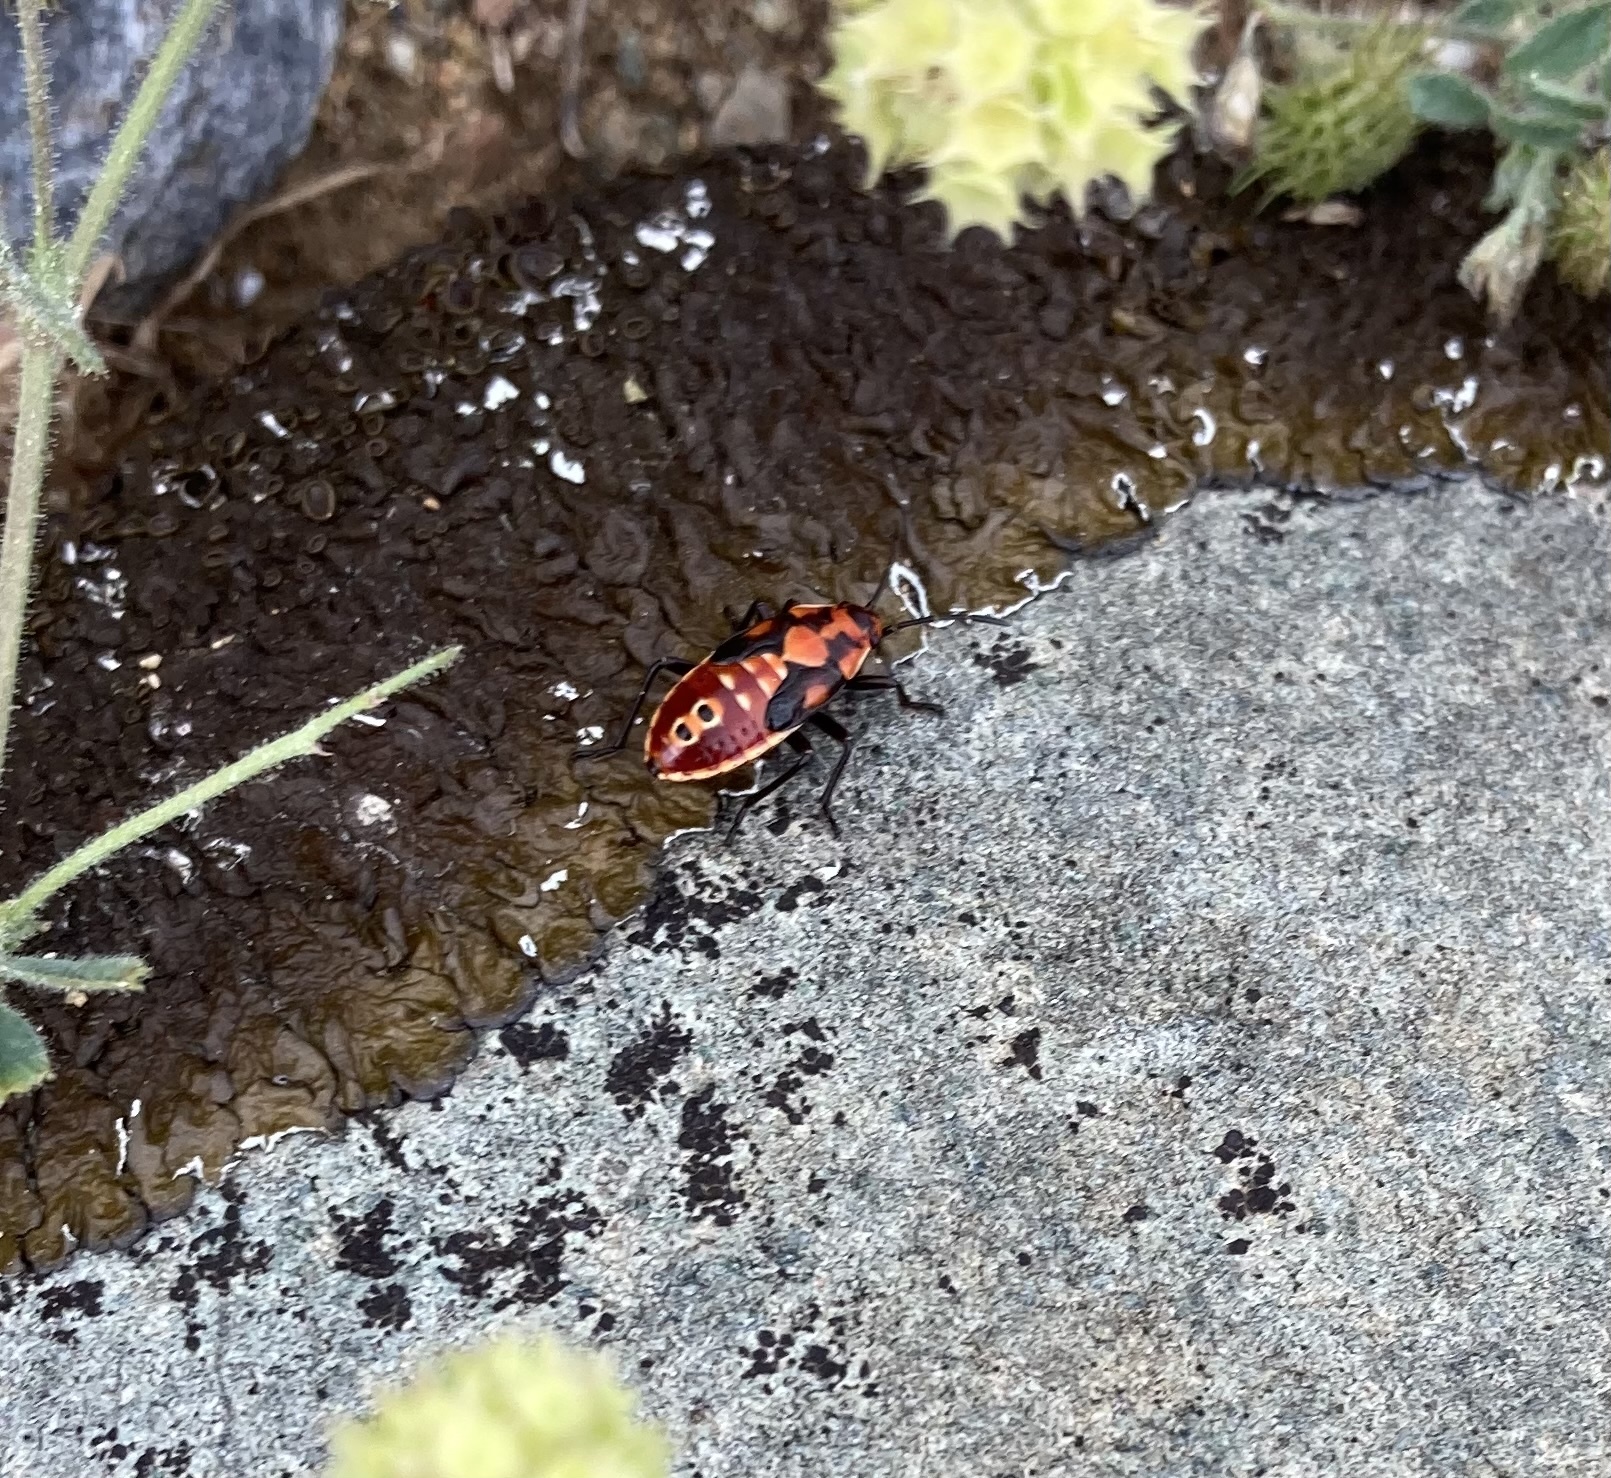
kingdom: Animalia
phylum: Arthropoda
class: Insecta
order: Hemiptera
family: Lygaeidae
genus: Spilostethus
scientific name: Spilostethus pandurus
